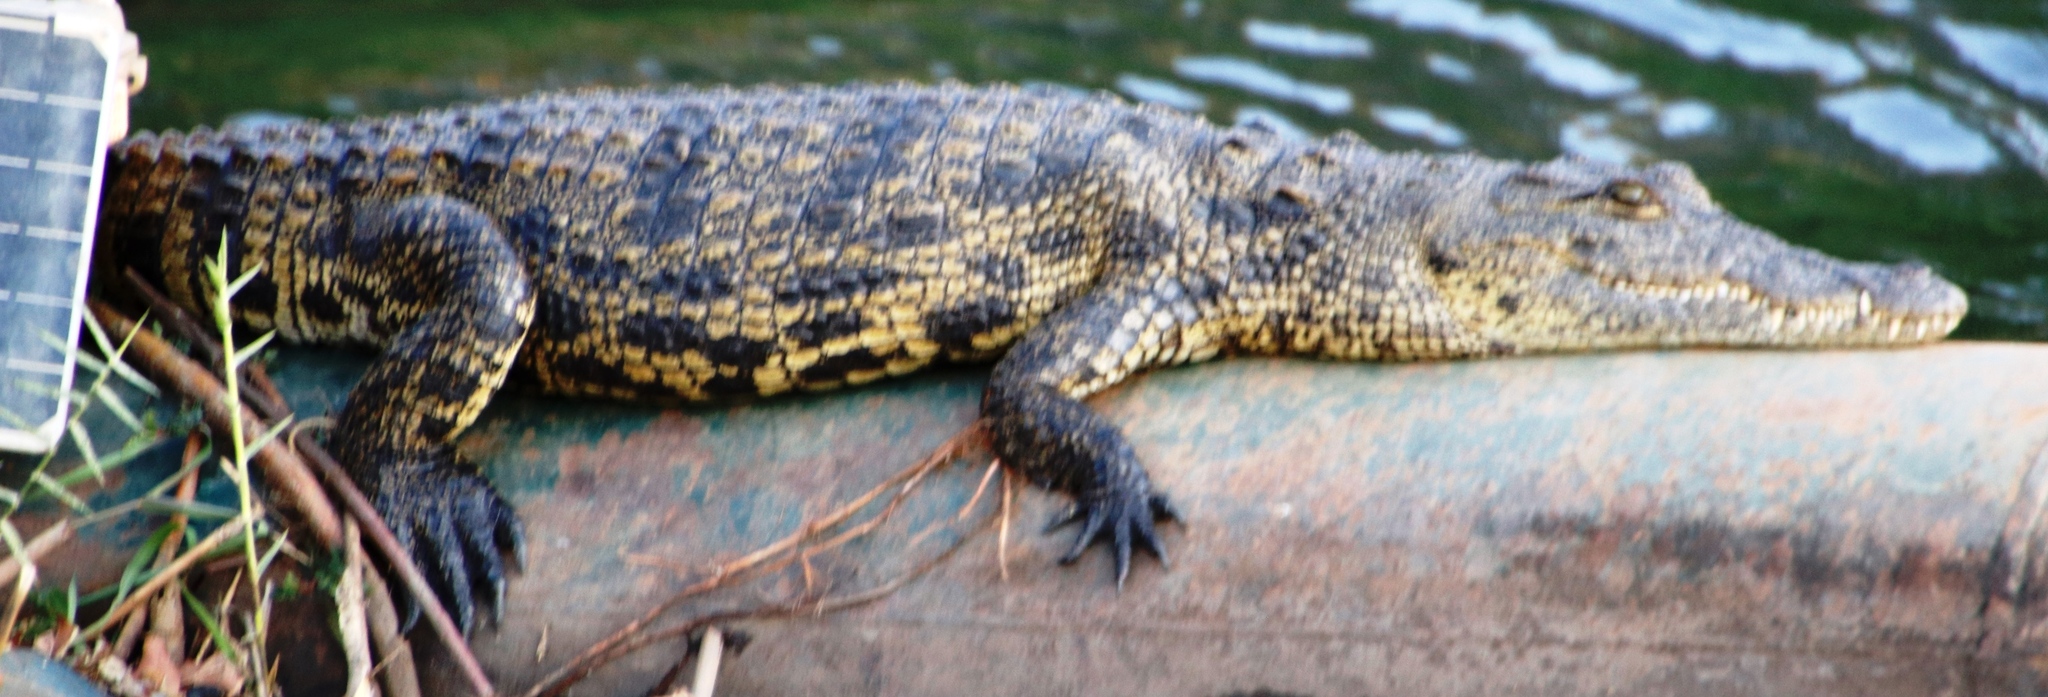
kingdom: Animalia
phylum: Chordata
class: Crocodylia
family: Crocodylidae
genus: Crocodylus
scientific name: Crocodylus niloticus
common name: Nile crocodile
